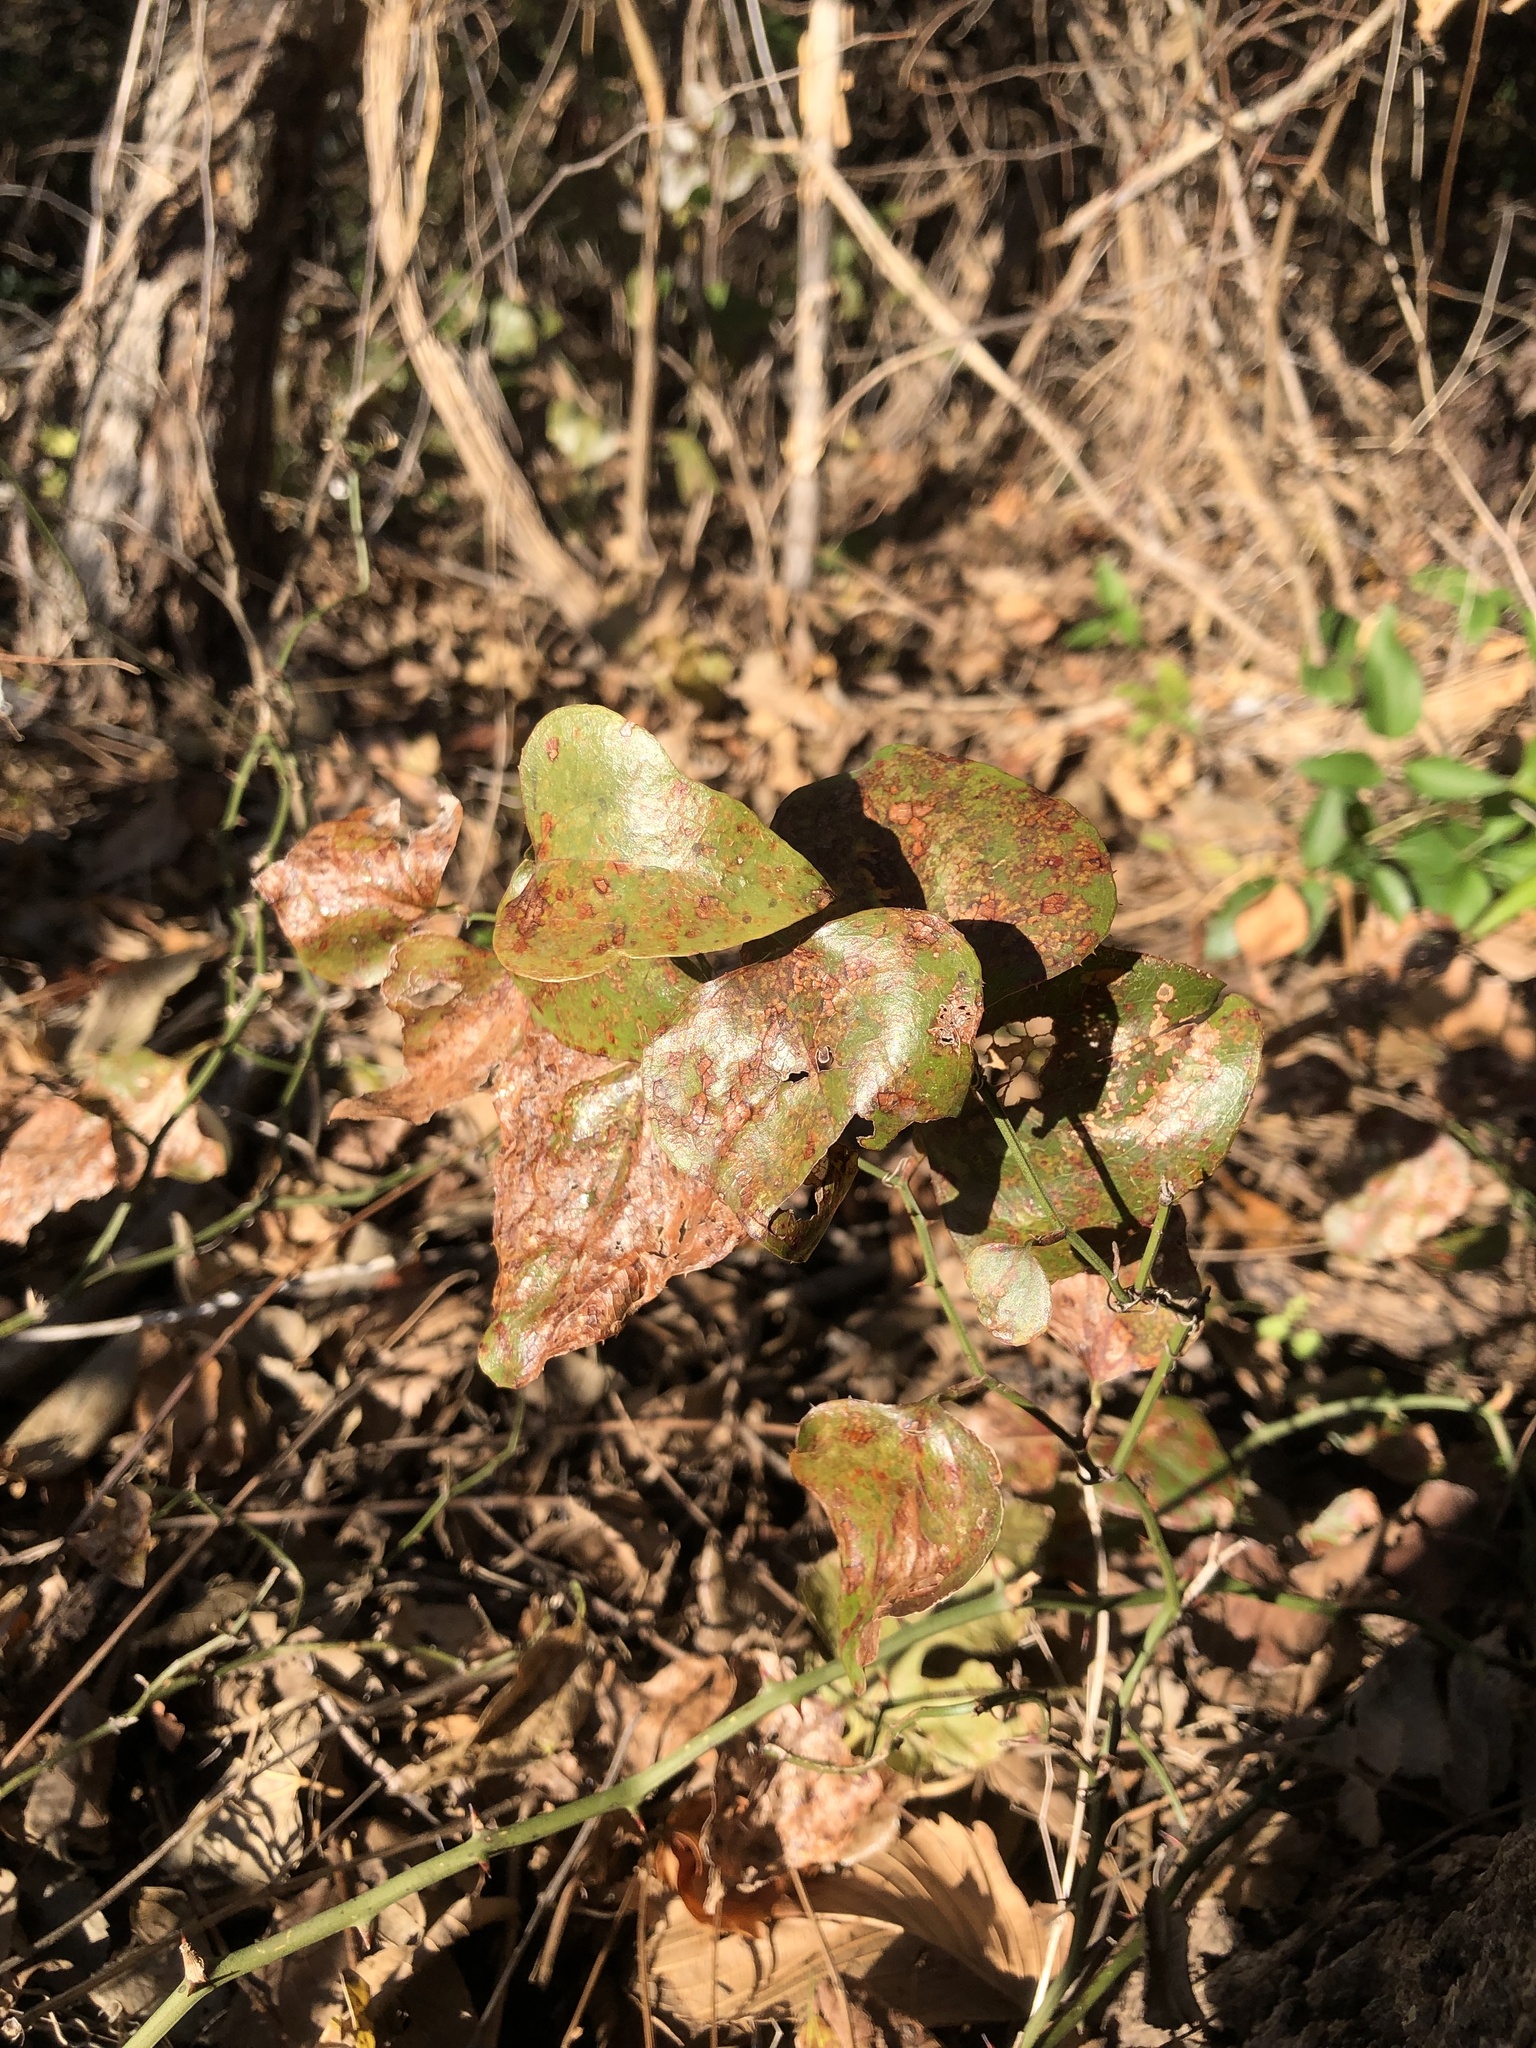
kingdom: Plantae
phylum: Tracheophyta
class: Liliopsida
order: Liliales
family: Smilacaceae
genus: Smilax
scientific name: Smilax bona-nox
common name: Catbrier
